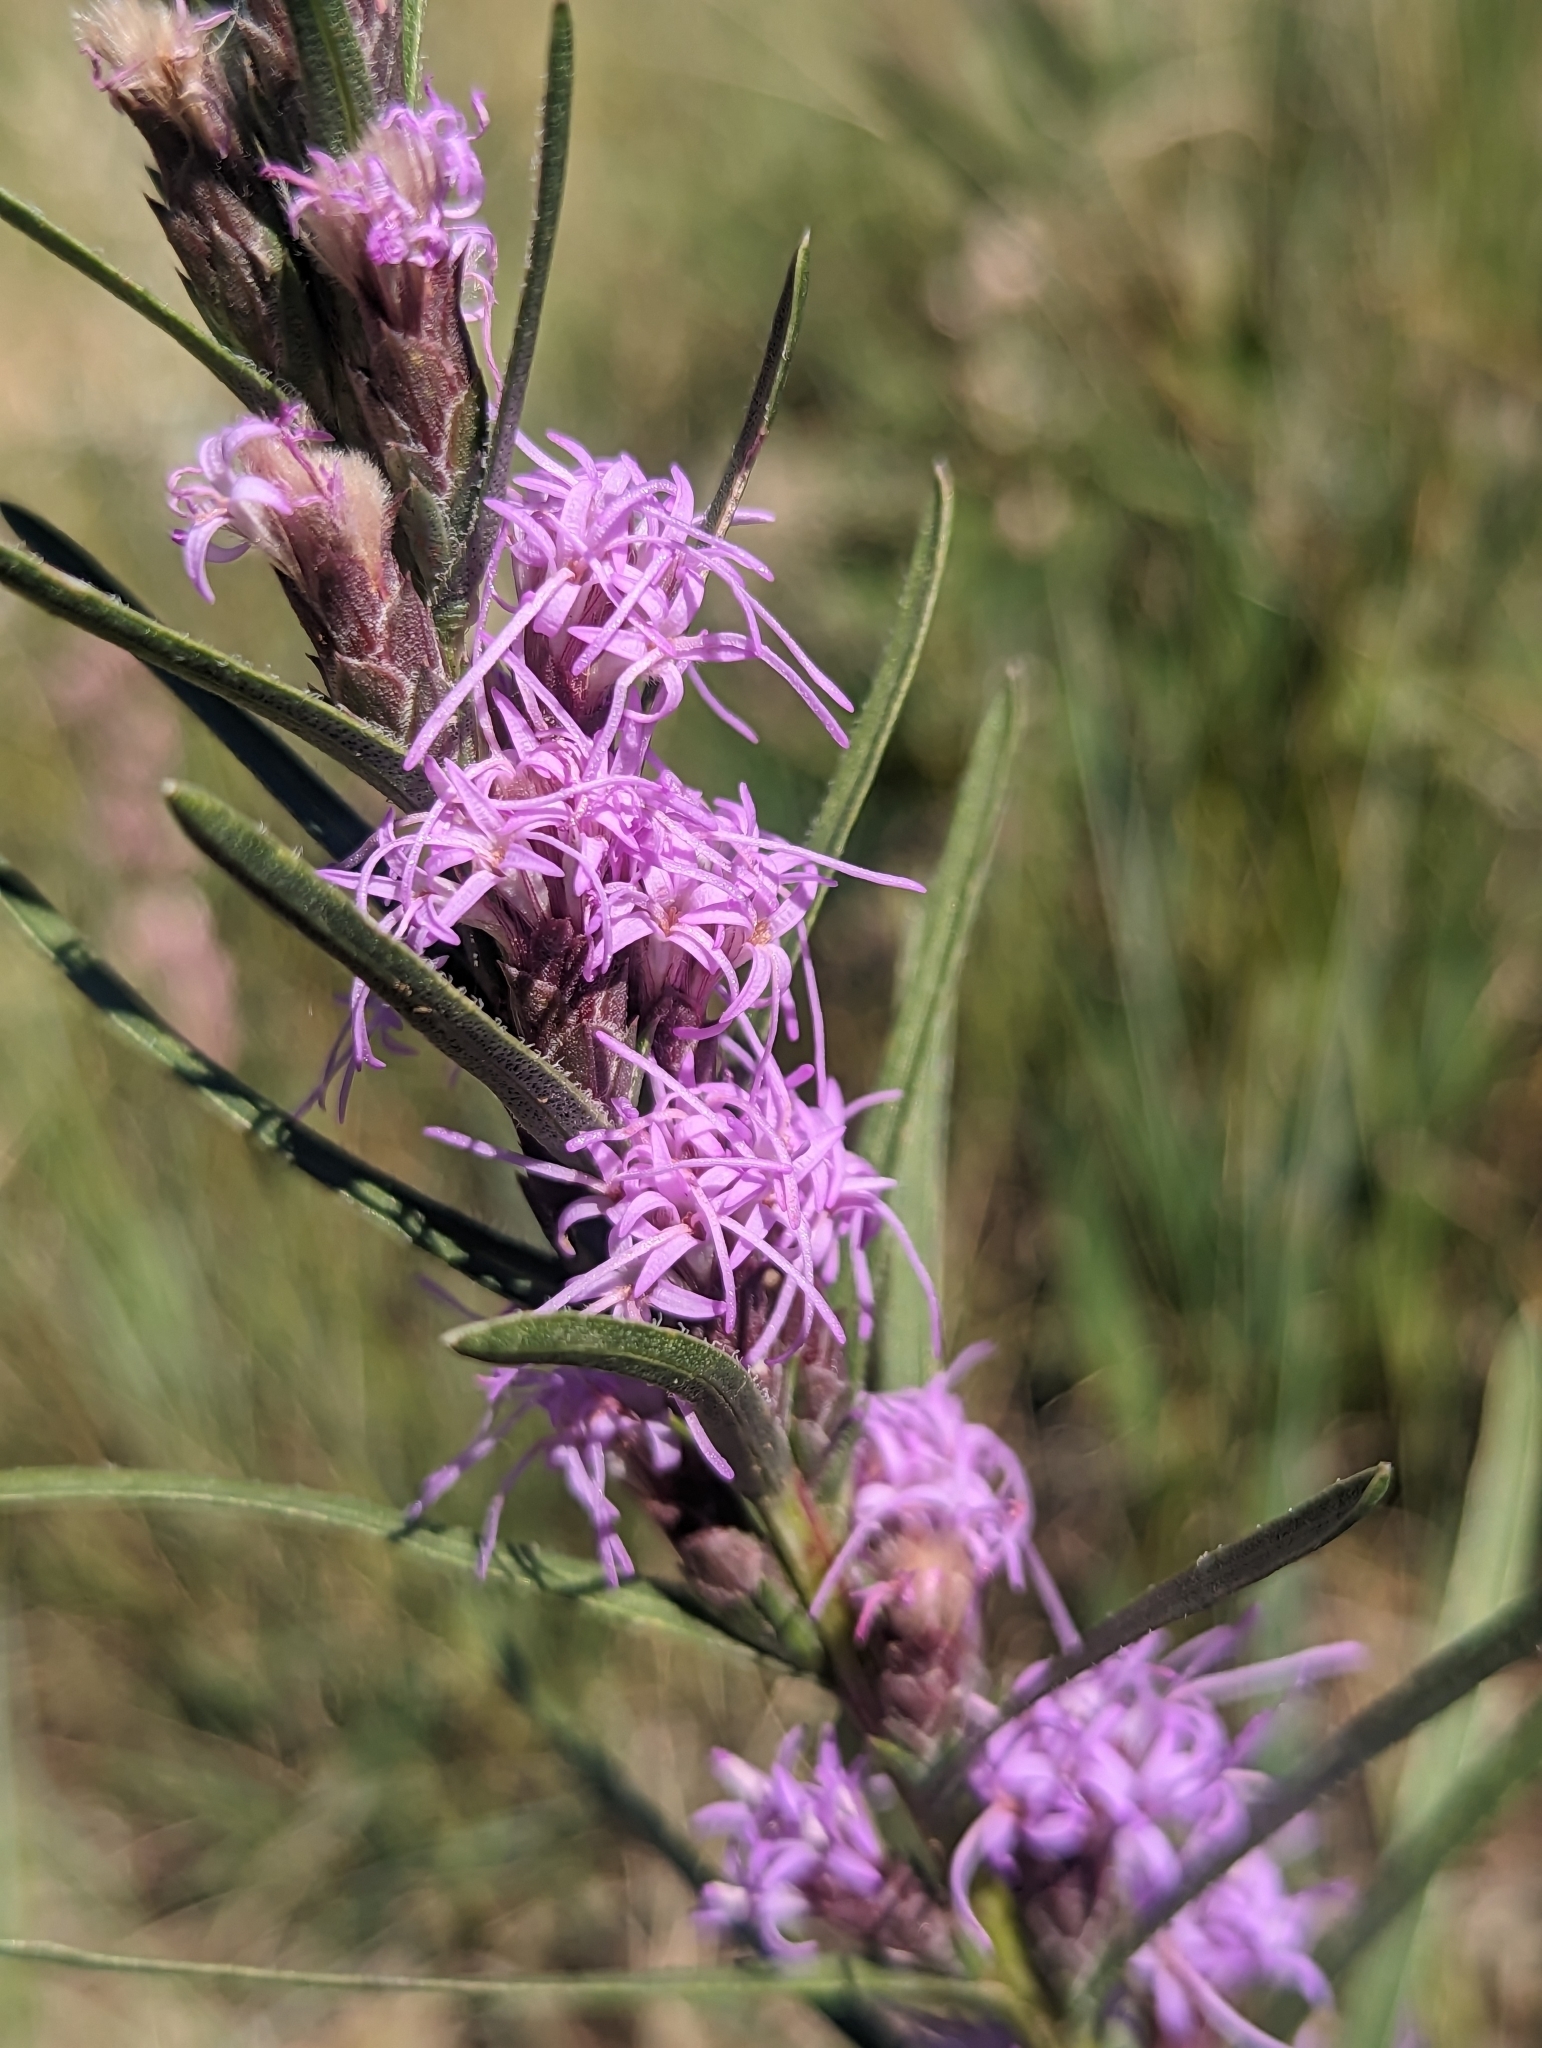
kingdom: Plantae
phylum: Tracheophyta
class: Magnoliopsida
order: Asterales
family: Asteraceae
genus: Liatris
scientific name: Liatris punctata
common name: Dotted gayfeather
